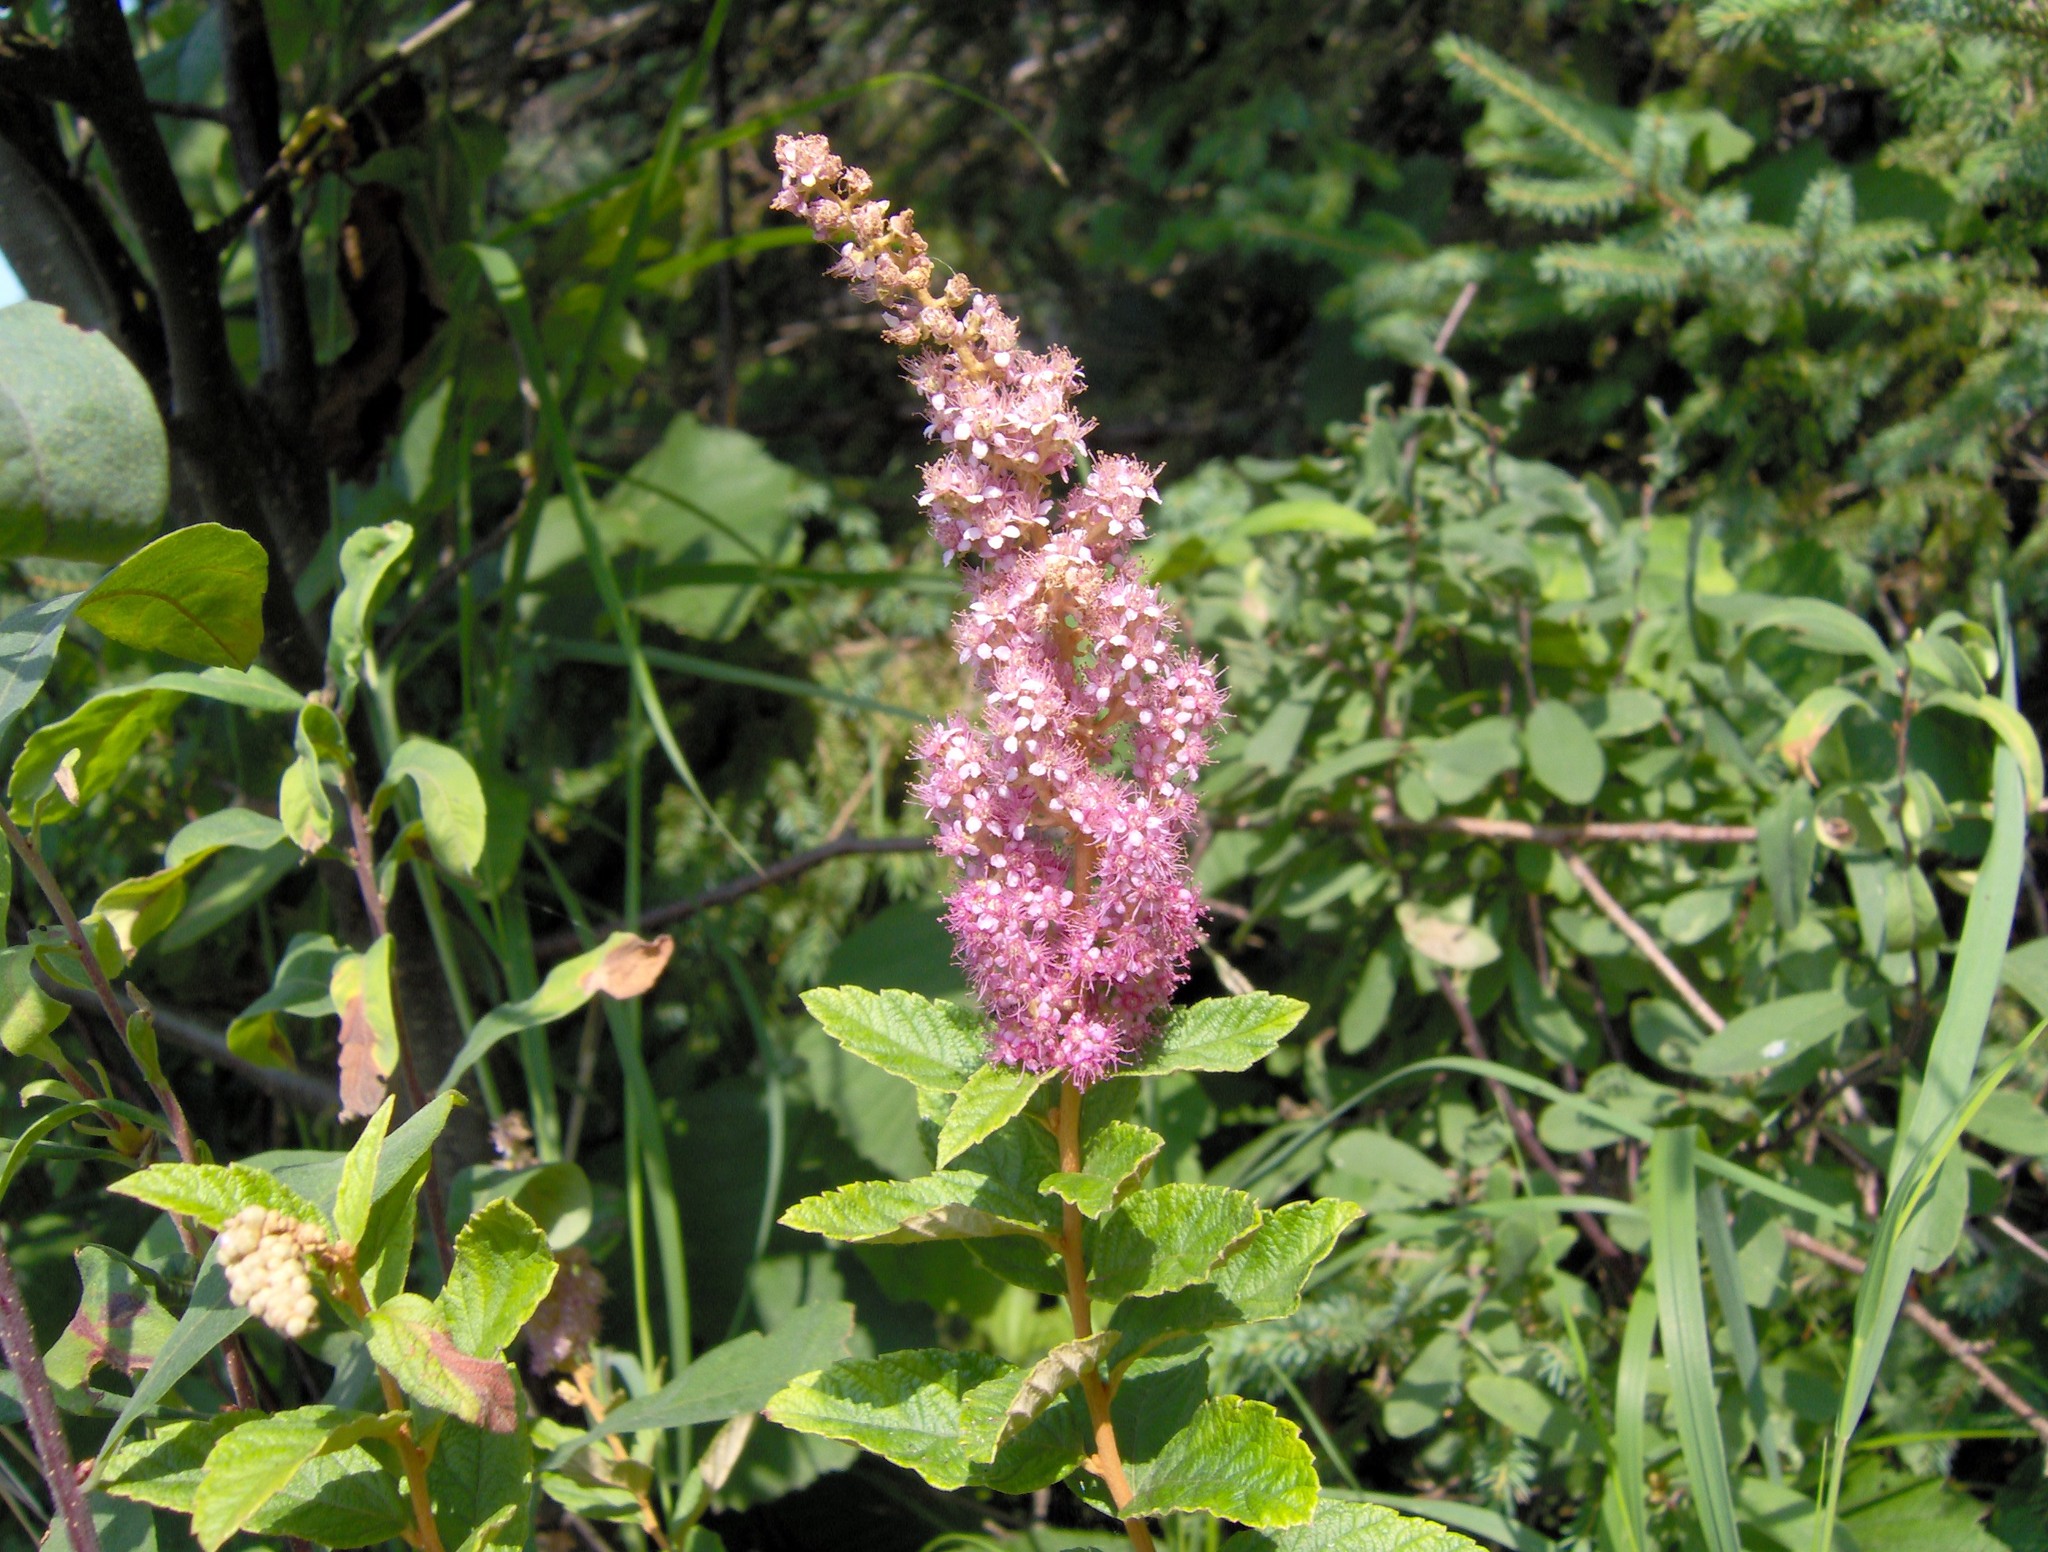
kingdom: Plantae
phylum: Tracheophyta
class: Magnoliopsida
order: Rosales
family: Rosaceae
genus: Spiraea
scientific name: Spiraea tomentosa
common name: Hardhack
